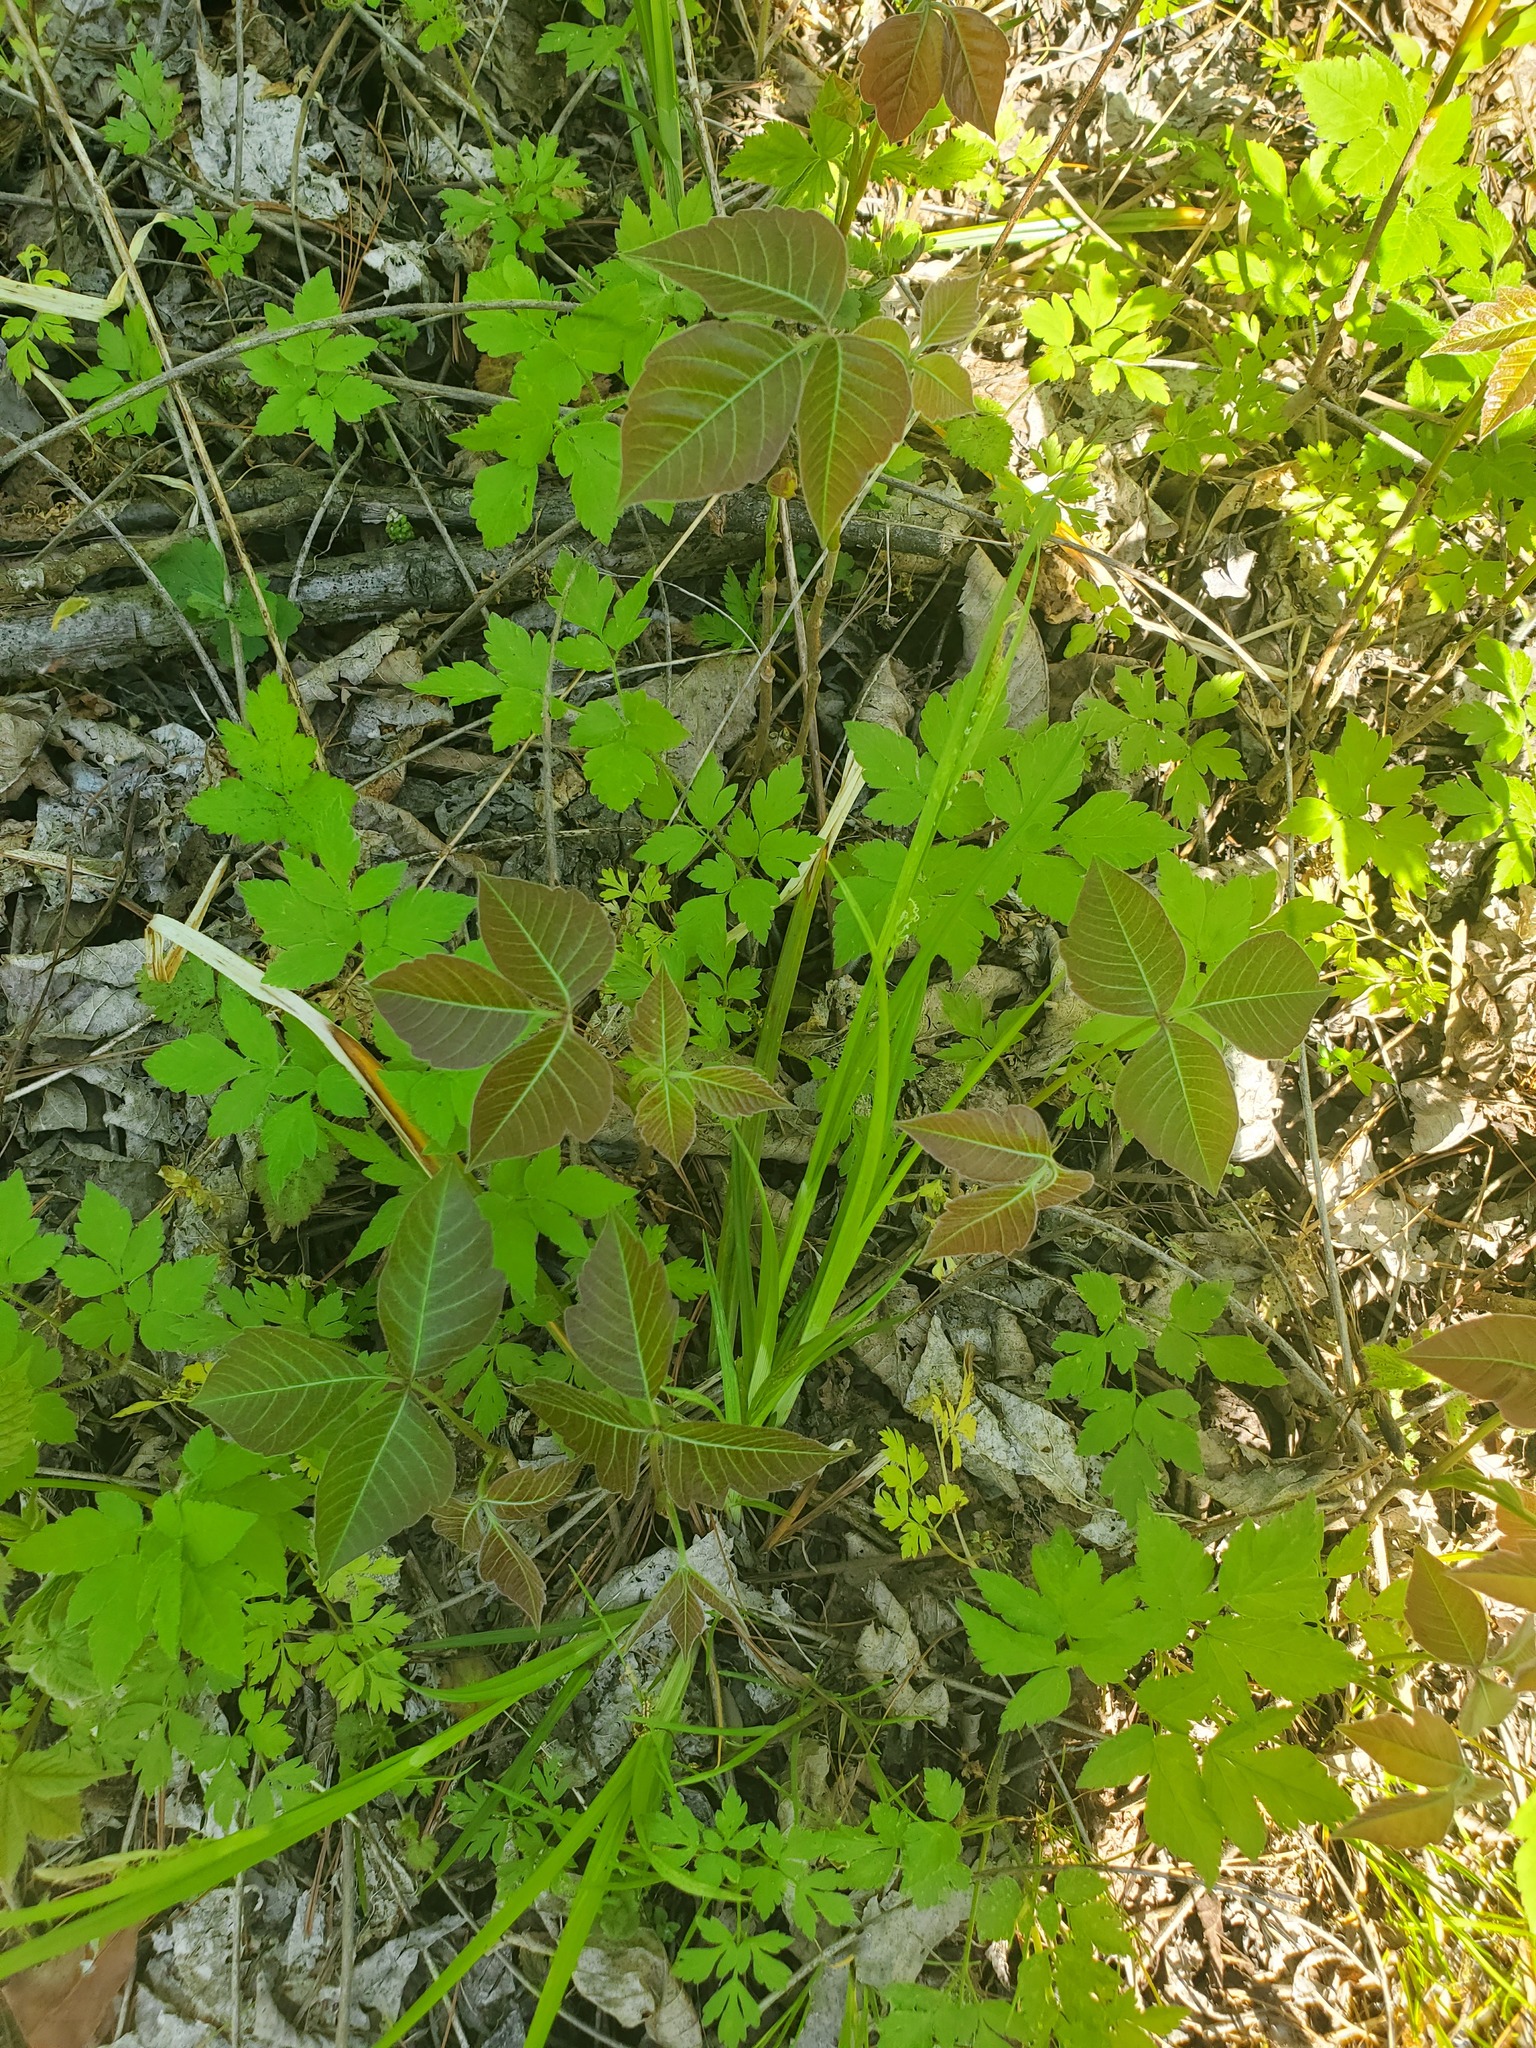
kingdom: Plantae
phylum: Tracheophyta
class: Magnoliopsida
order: Sapindales
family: Anacardiaceae
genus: Toxicodendron
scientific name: Toxicodendron radicans
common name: Poison ivy
